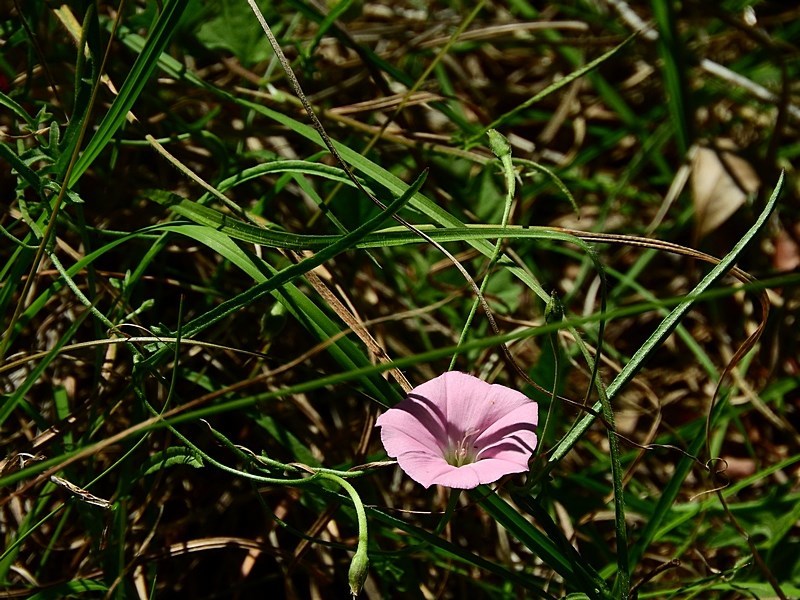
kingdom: Plantae
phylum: Tracheophyta
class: Magnoliopsida
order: Solanales
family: Convolvulaceae
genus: Convolvulus
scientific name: Convolvulus angustissimus
